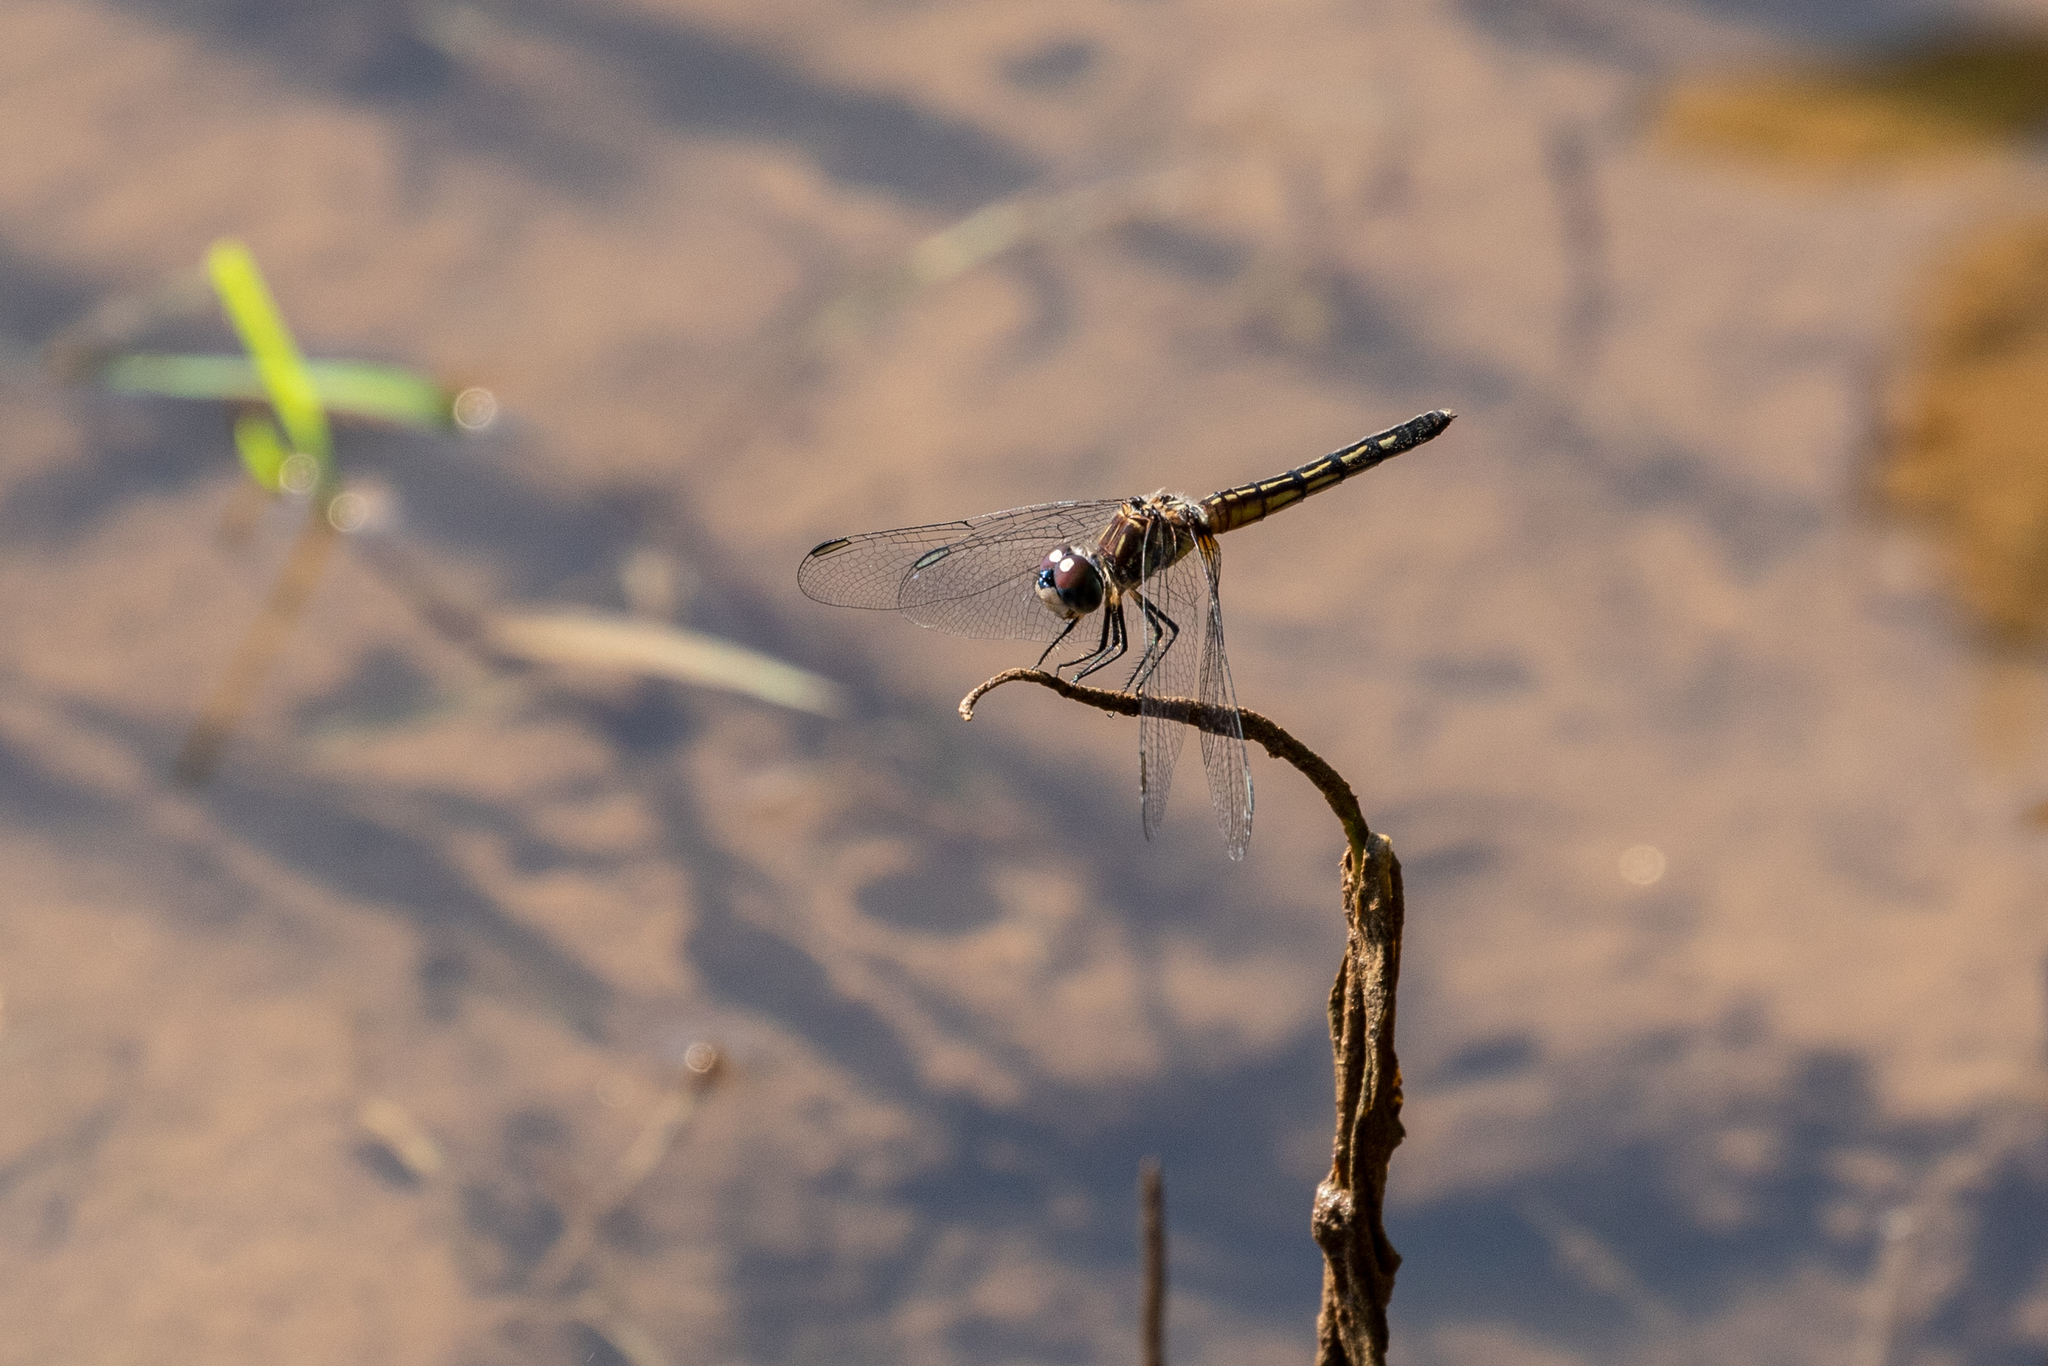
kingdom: Animalia
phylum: Arthropoda
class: Insecta
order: Odonata
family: Libellulidae
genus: Pachydiplax
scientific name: Pachydiplax longipennis
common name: Blue dasher
